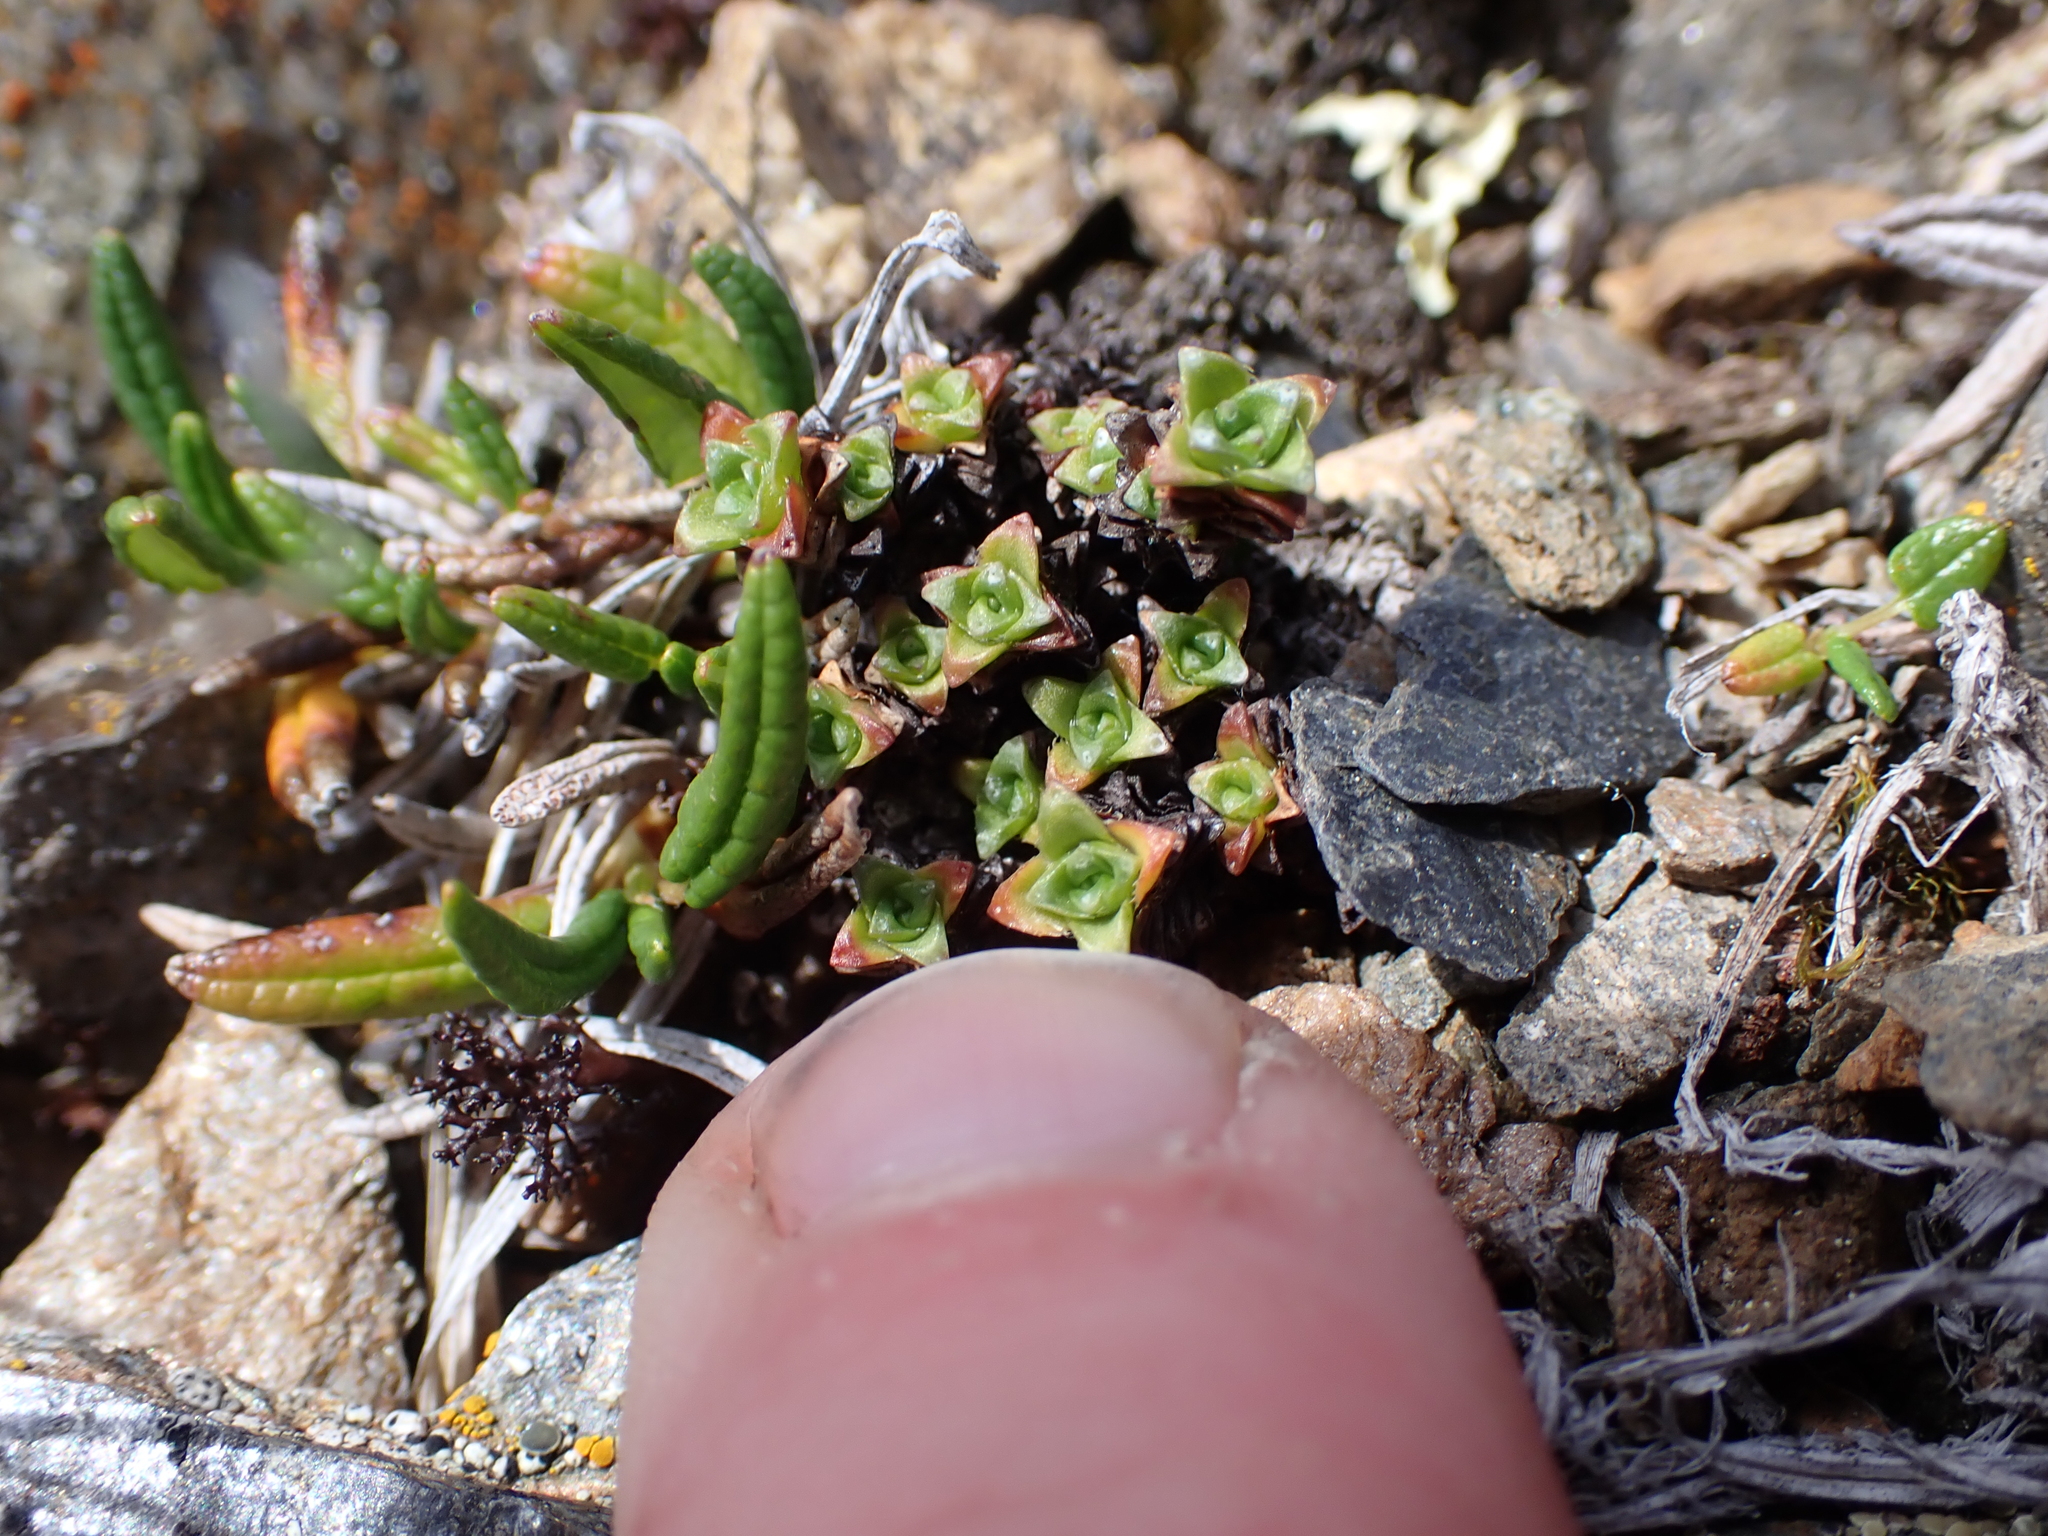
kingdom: Plantae
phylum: Tracheophyta
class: Magnoliopsida
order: Saxifragales
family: Saxifragaceae
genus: Saxifraga
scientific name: Saxifraga oppositifolia
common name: Purple saxifrage
